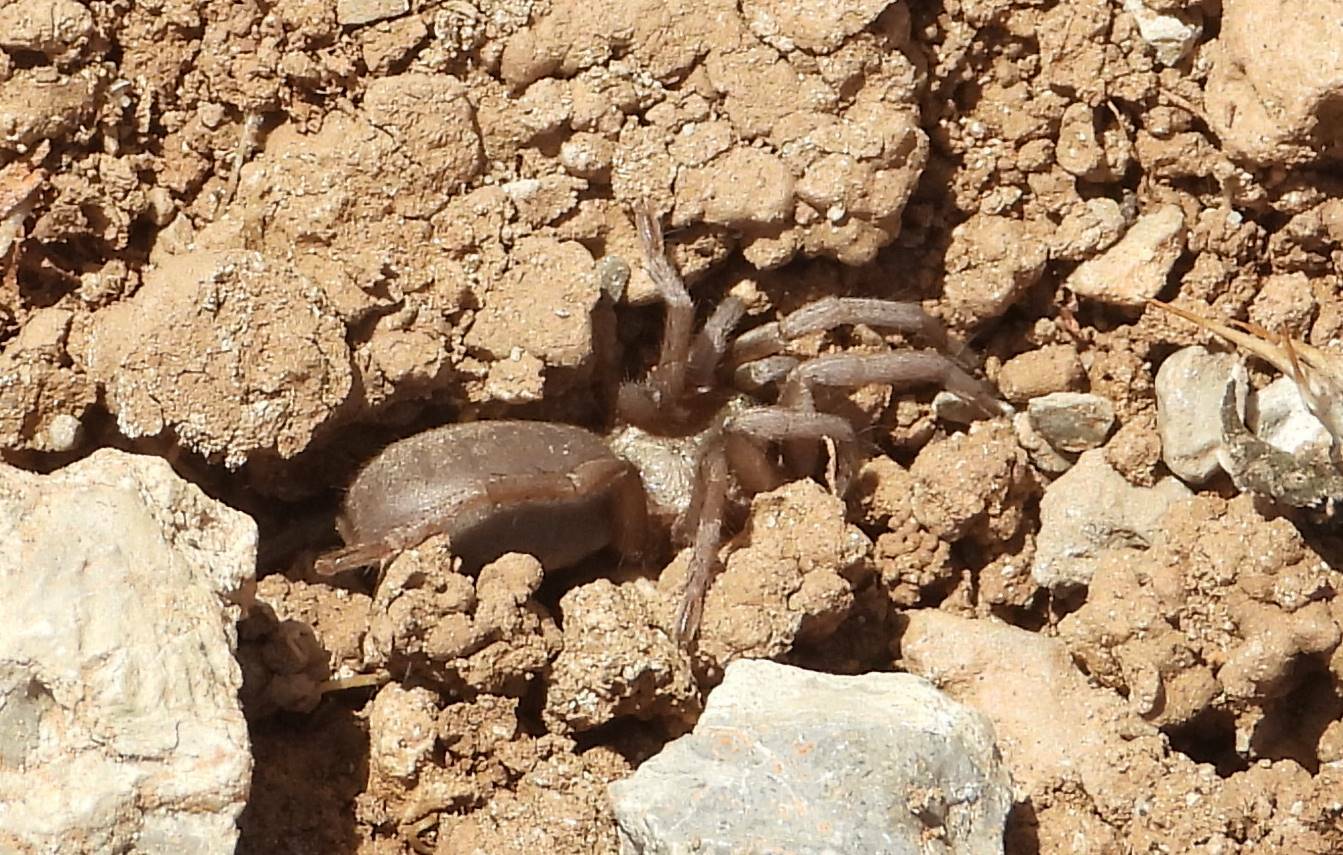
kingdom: Animalia
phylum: Arthropoda
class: Arachnida
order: Araneae
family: Theraphosidae
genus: Ischnocolus
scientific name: Ischnocolus valentinus
